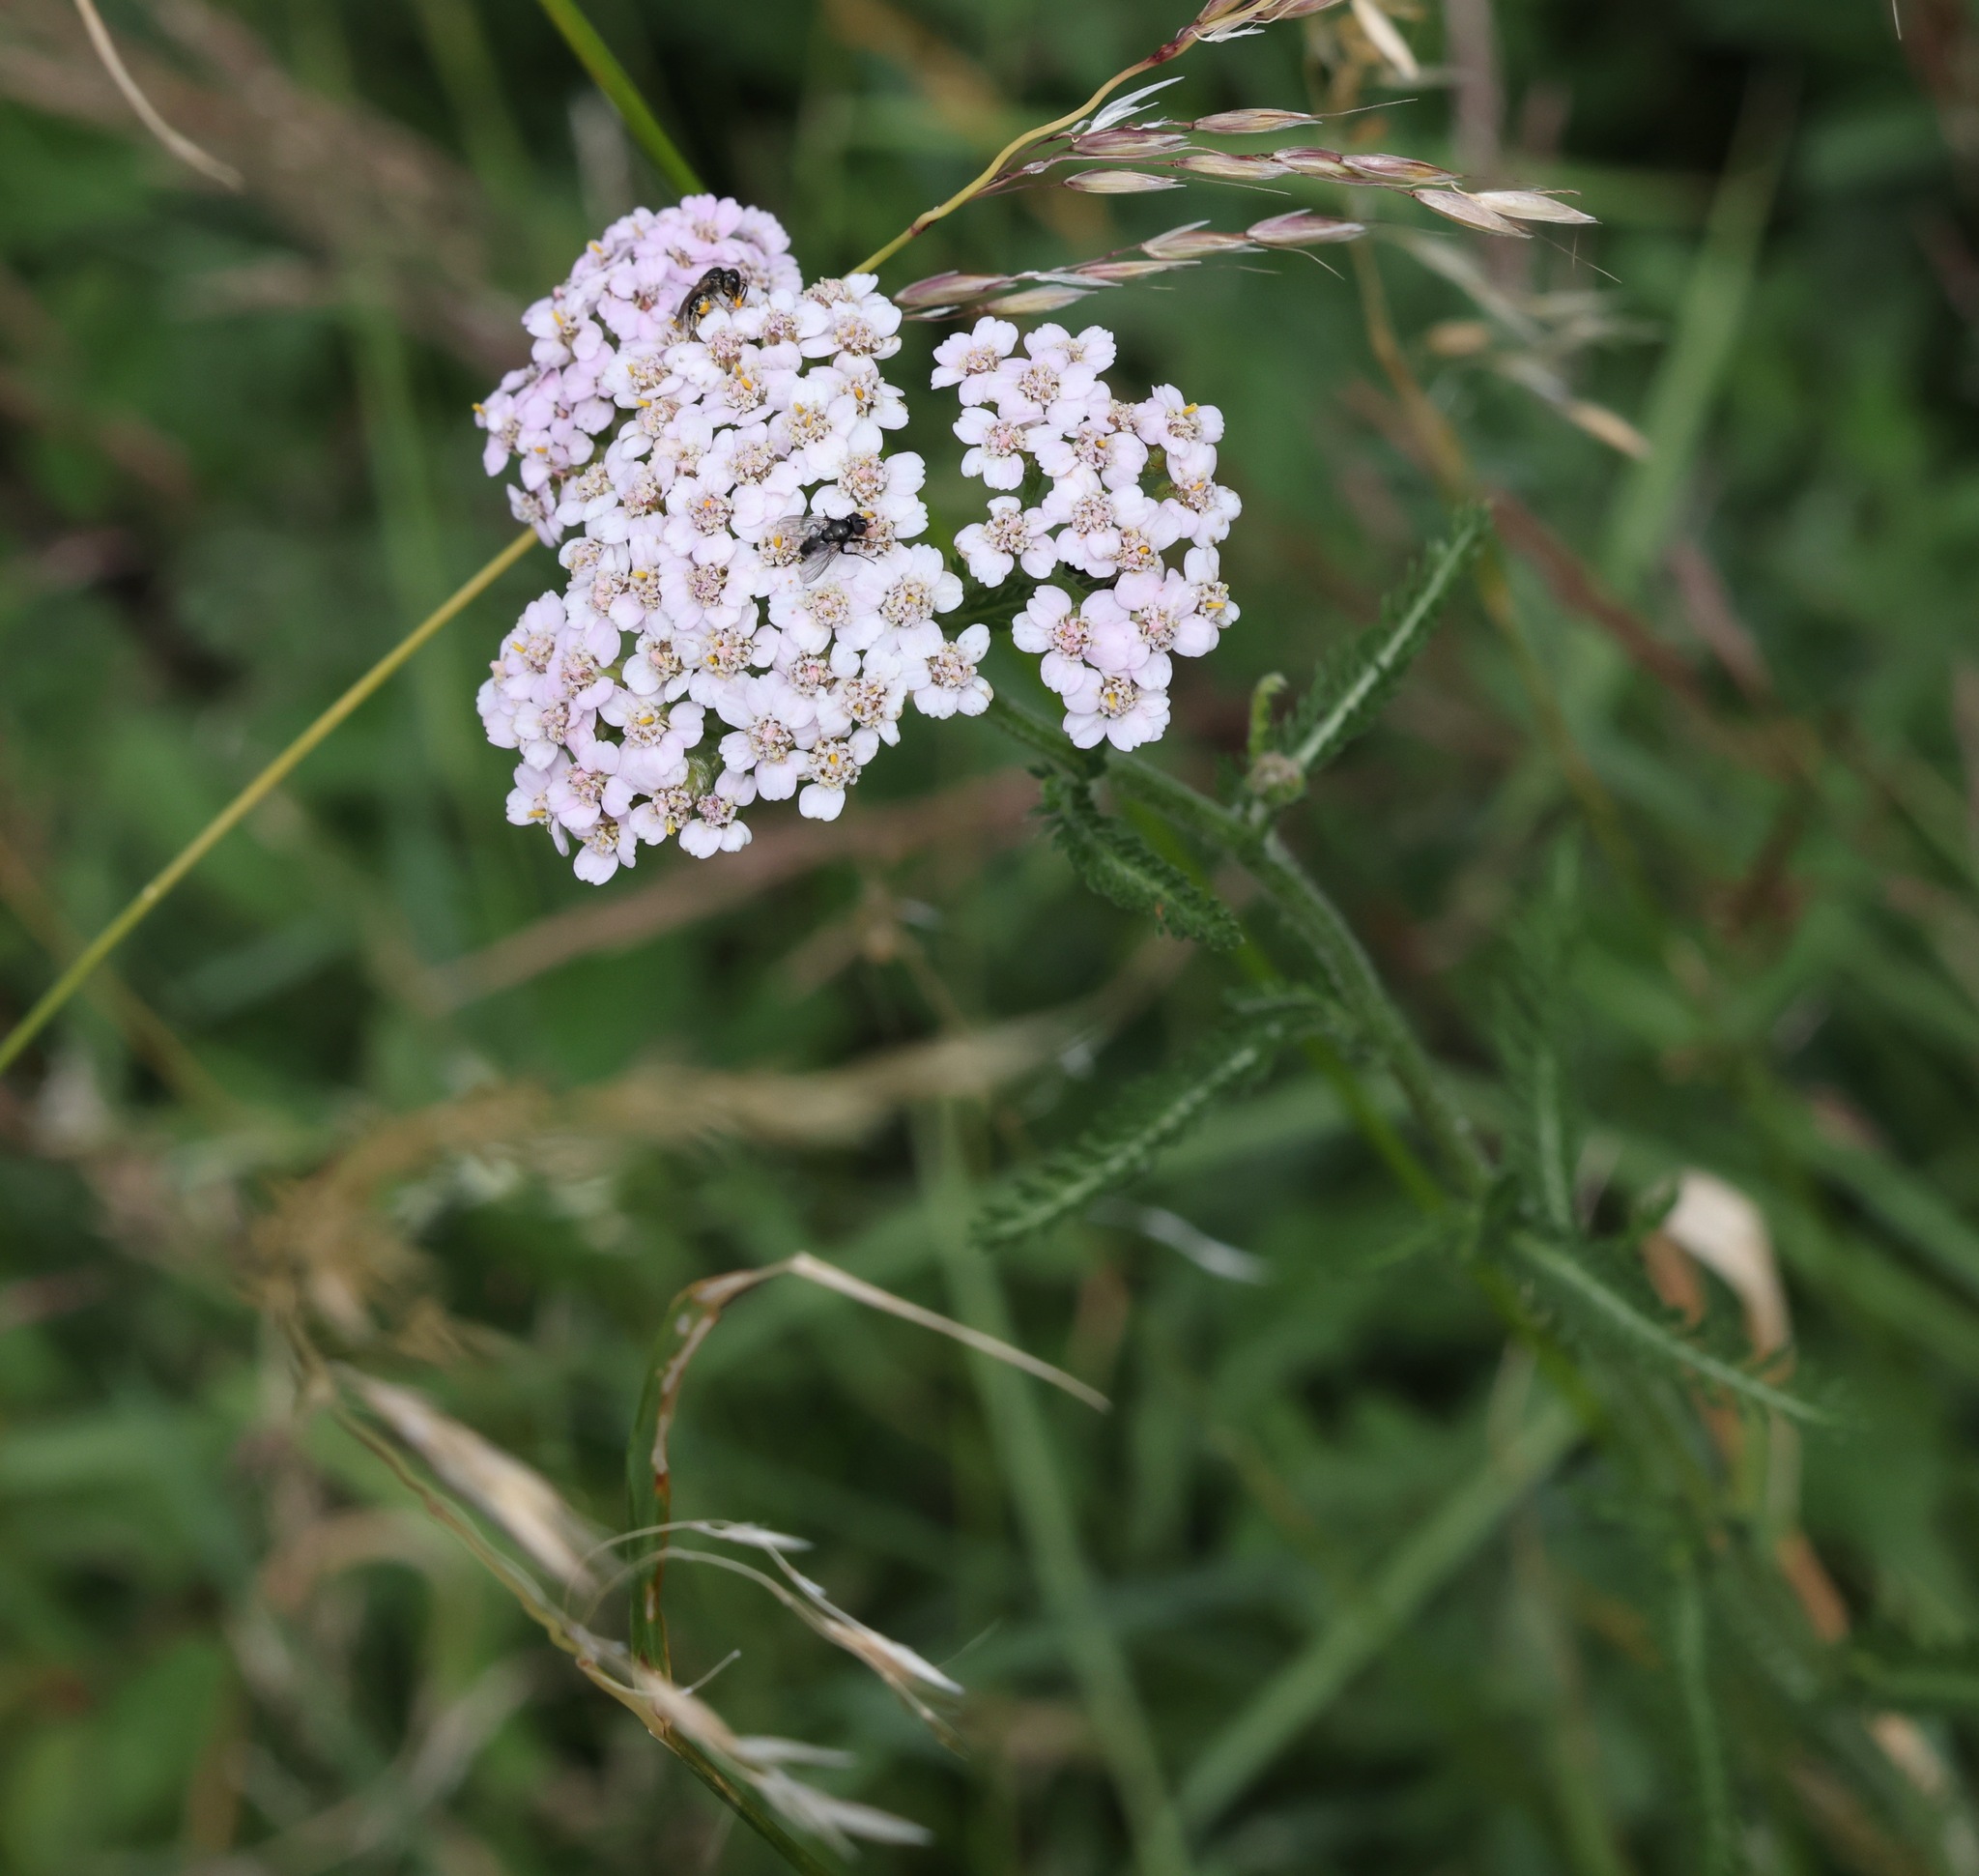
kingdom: Plantae
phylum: Tracheophyta
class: Magnoliopsida
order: Asterales
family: Asteraceae
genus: Achillea
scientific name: Achillea millefolium
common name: Yarrow
